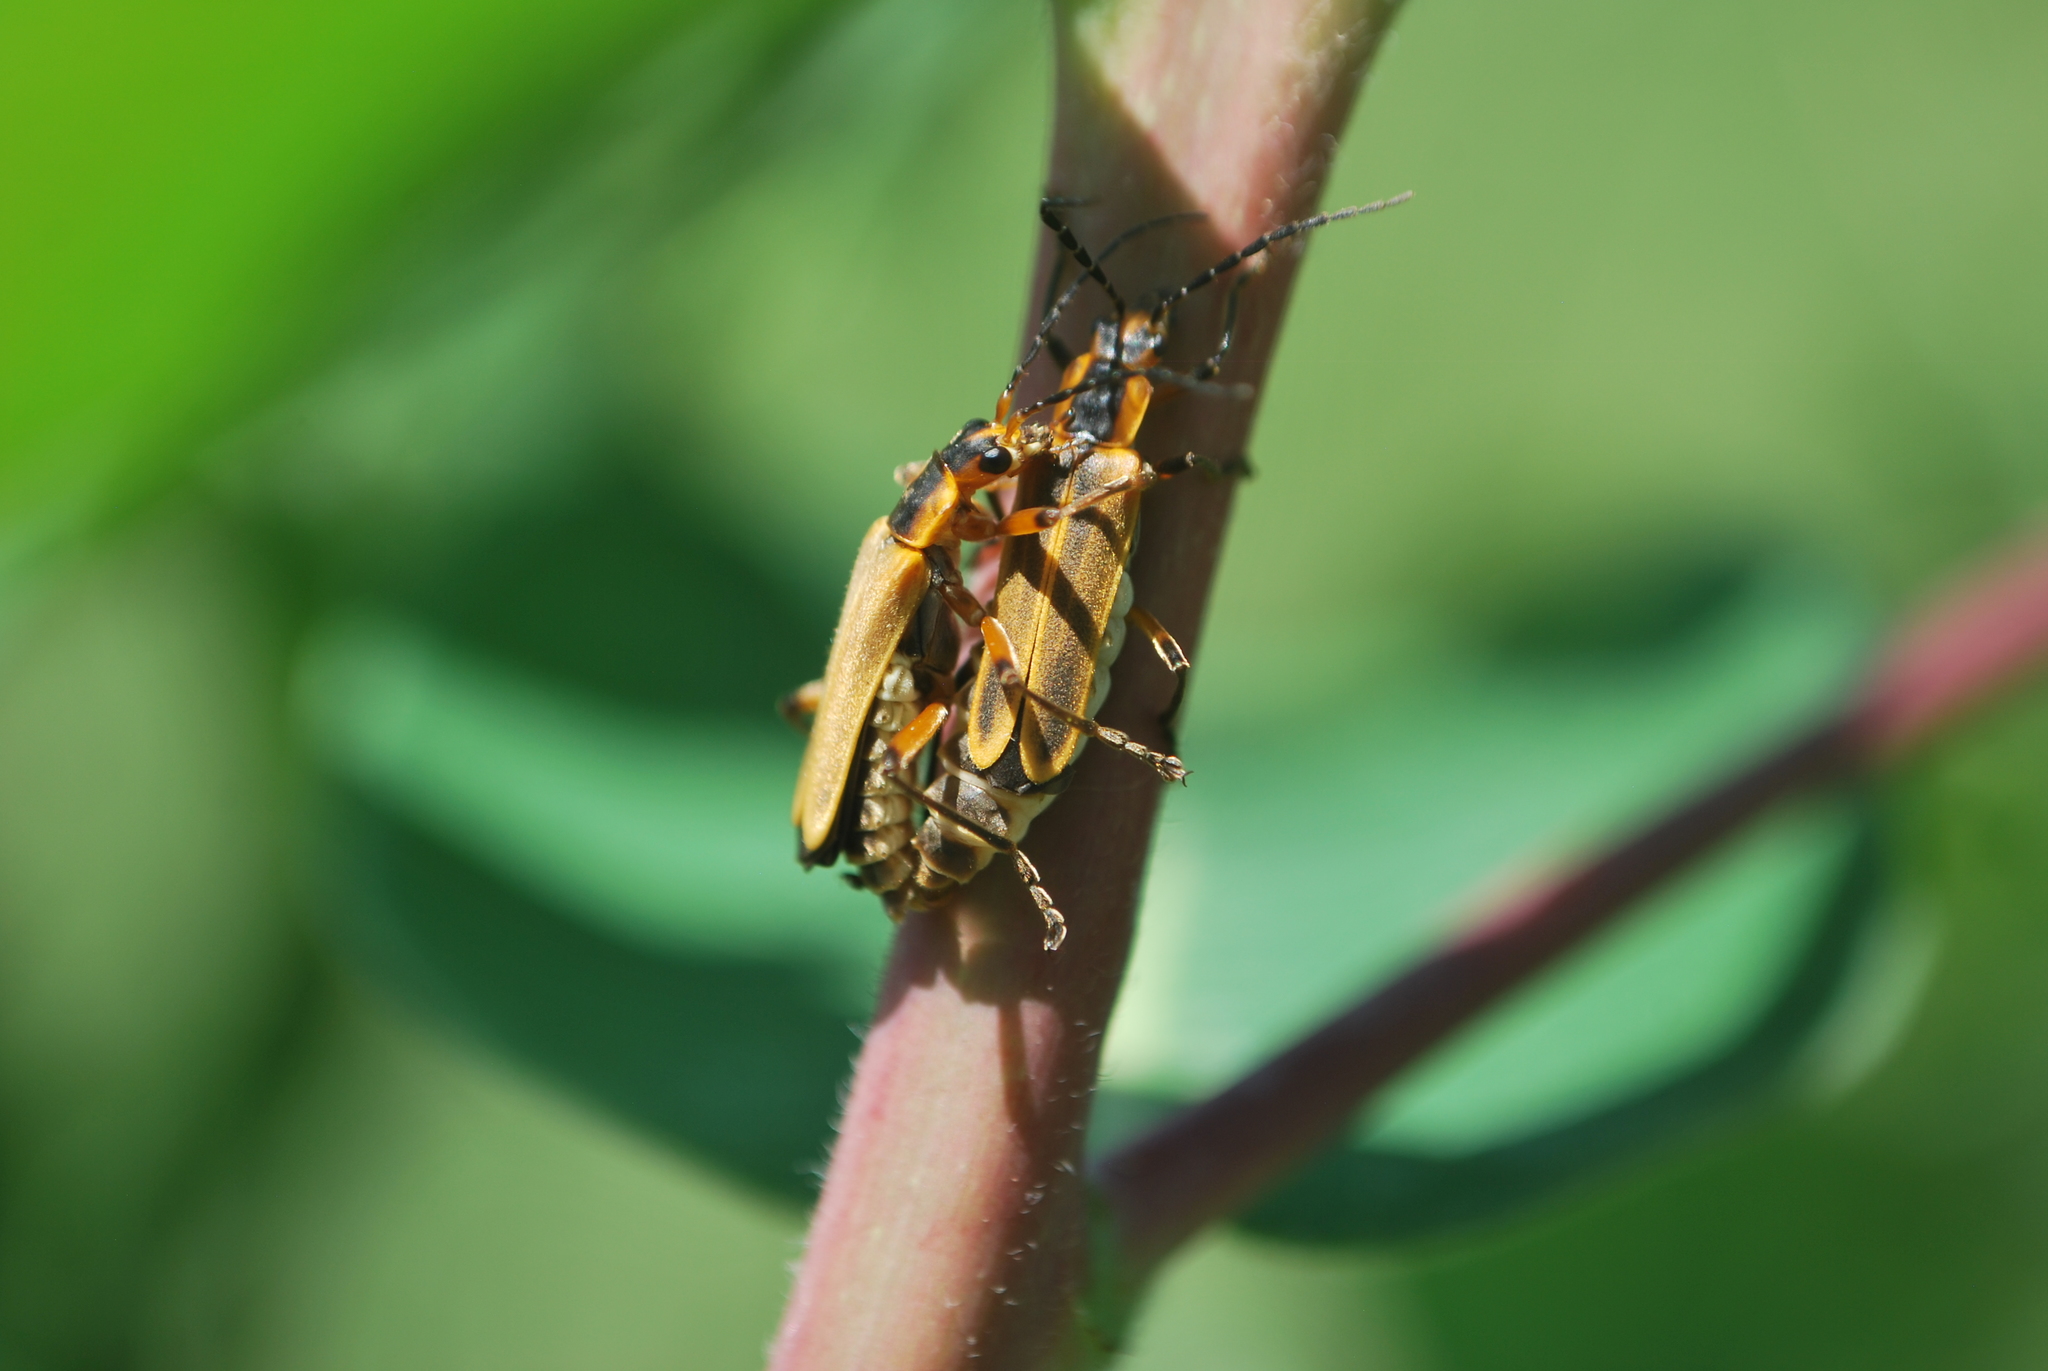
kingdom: Animalia
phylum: Arthropoda
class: Insecta
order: Coleoptera
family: Cantharidae
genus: Chauliognathus
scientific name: Chauliognathus marginatus
